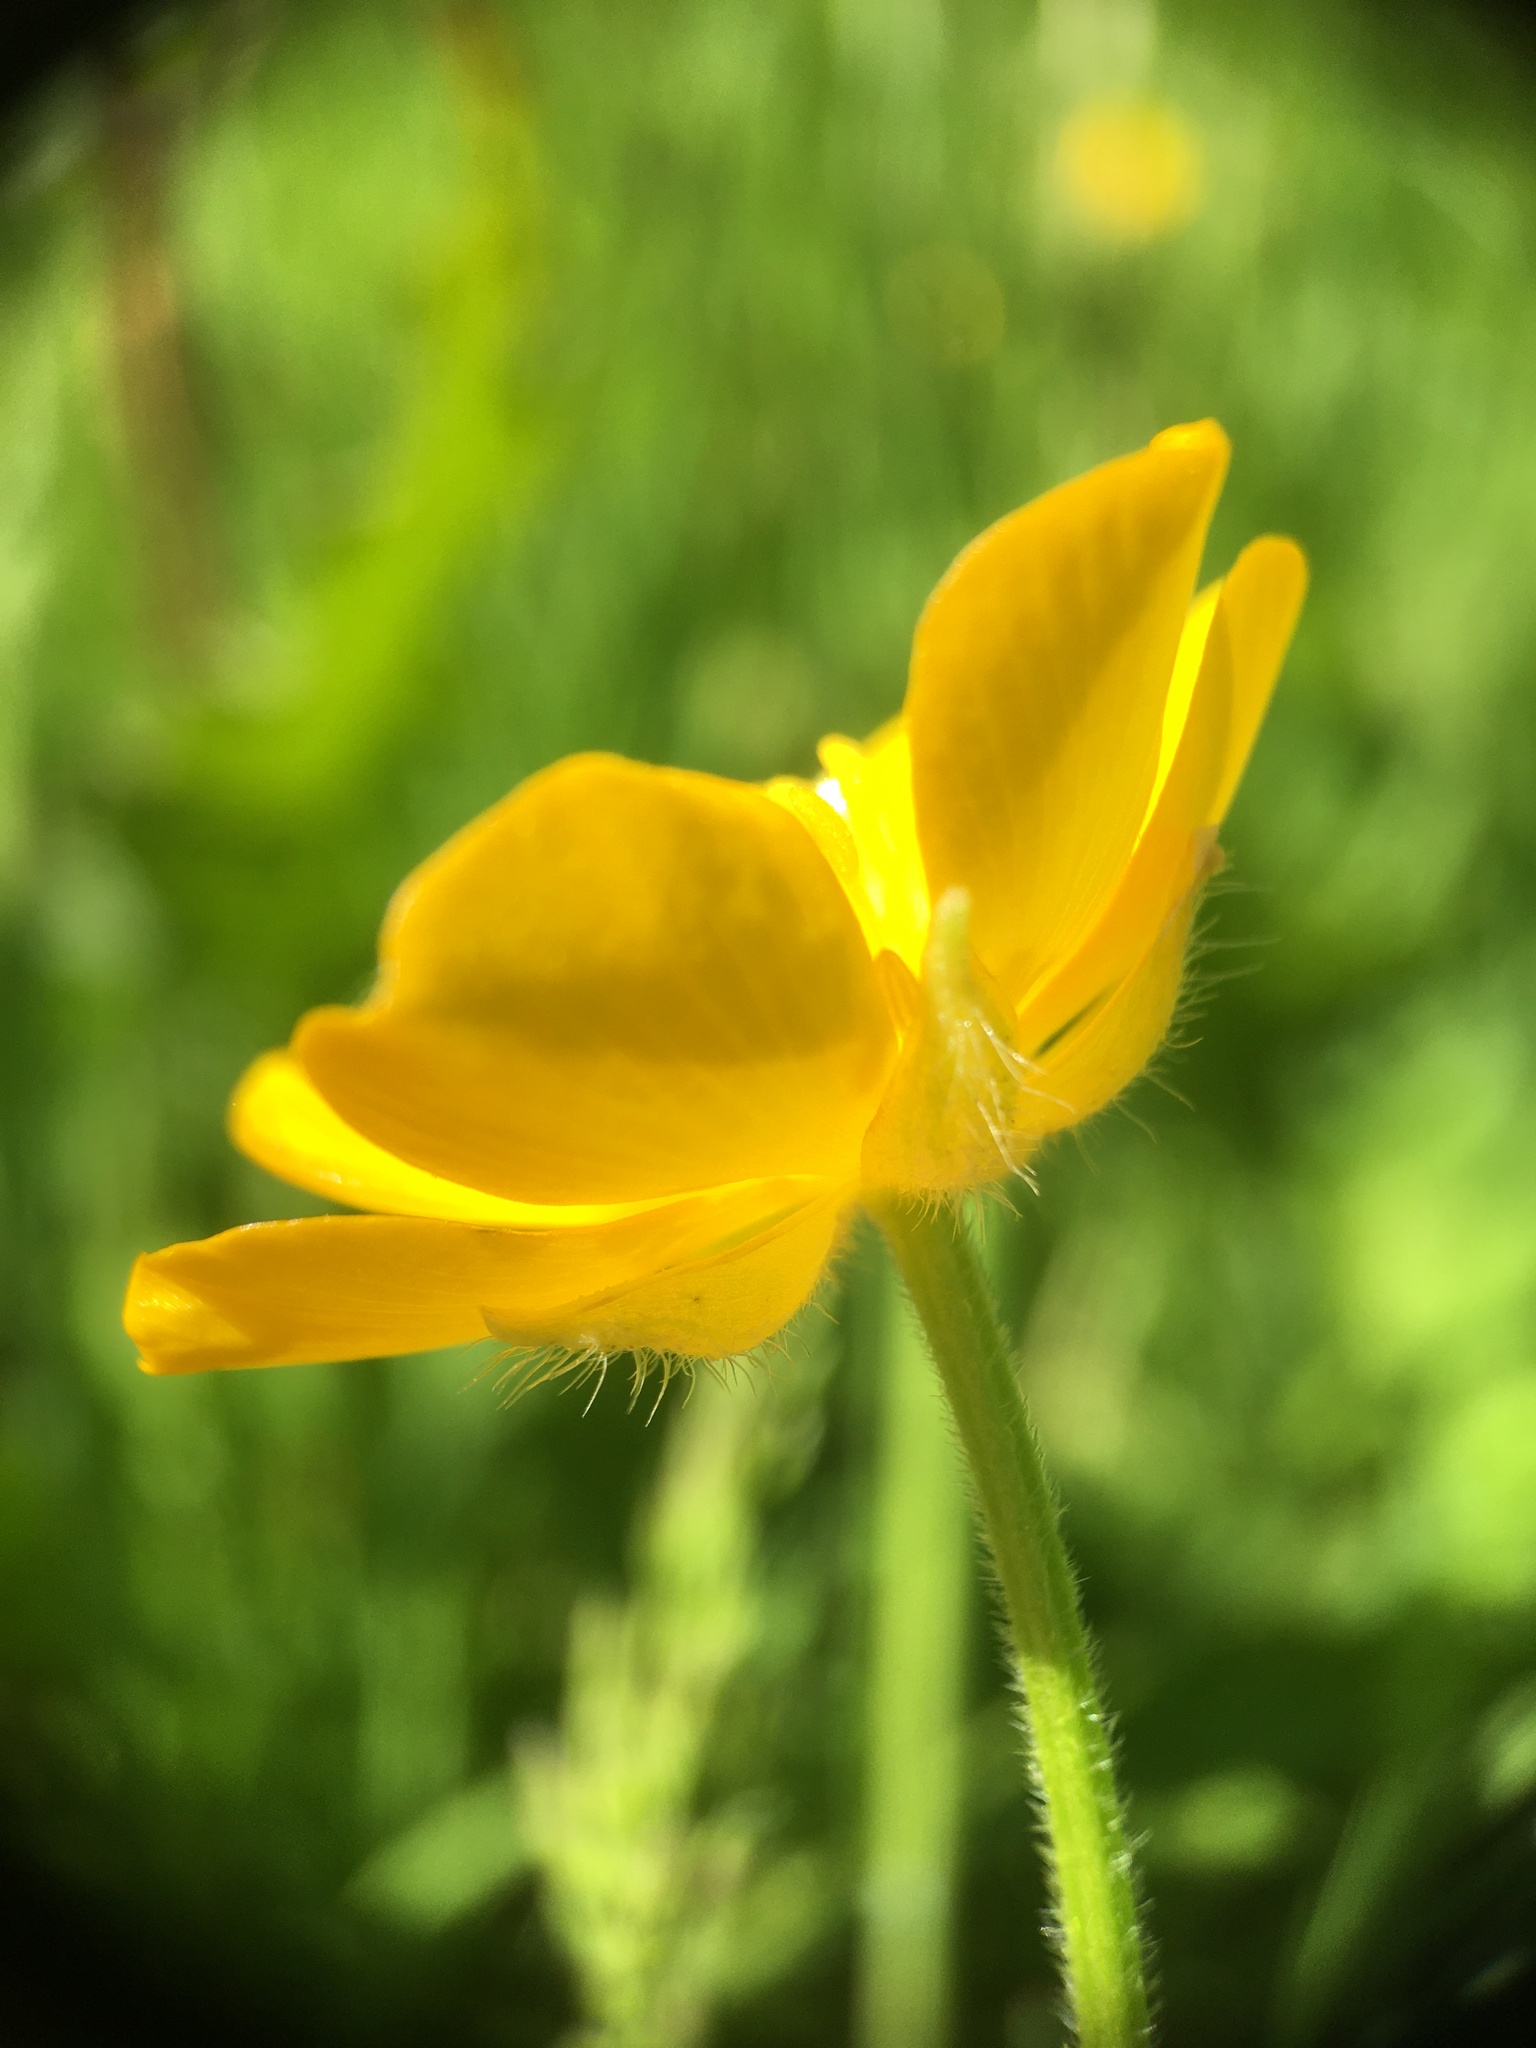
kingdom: Plantae
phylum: Tracheophyta
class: Magnoliopsida
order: Ranunculales
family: Ranunculaceae
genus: Ranunculus
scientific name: Ranunculus repens
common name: Creeping buttercup
